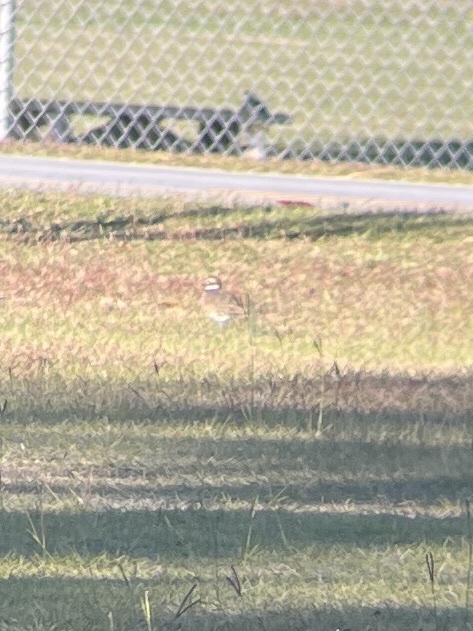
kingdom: Animalia
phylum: Chordata
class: Aves
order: Charadriiformes
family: Charadriidae
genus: Charadrius
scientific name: Charadrius vociferus
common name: Killdeer
